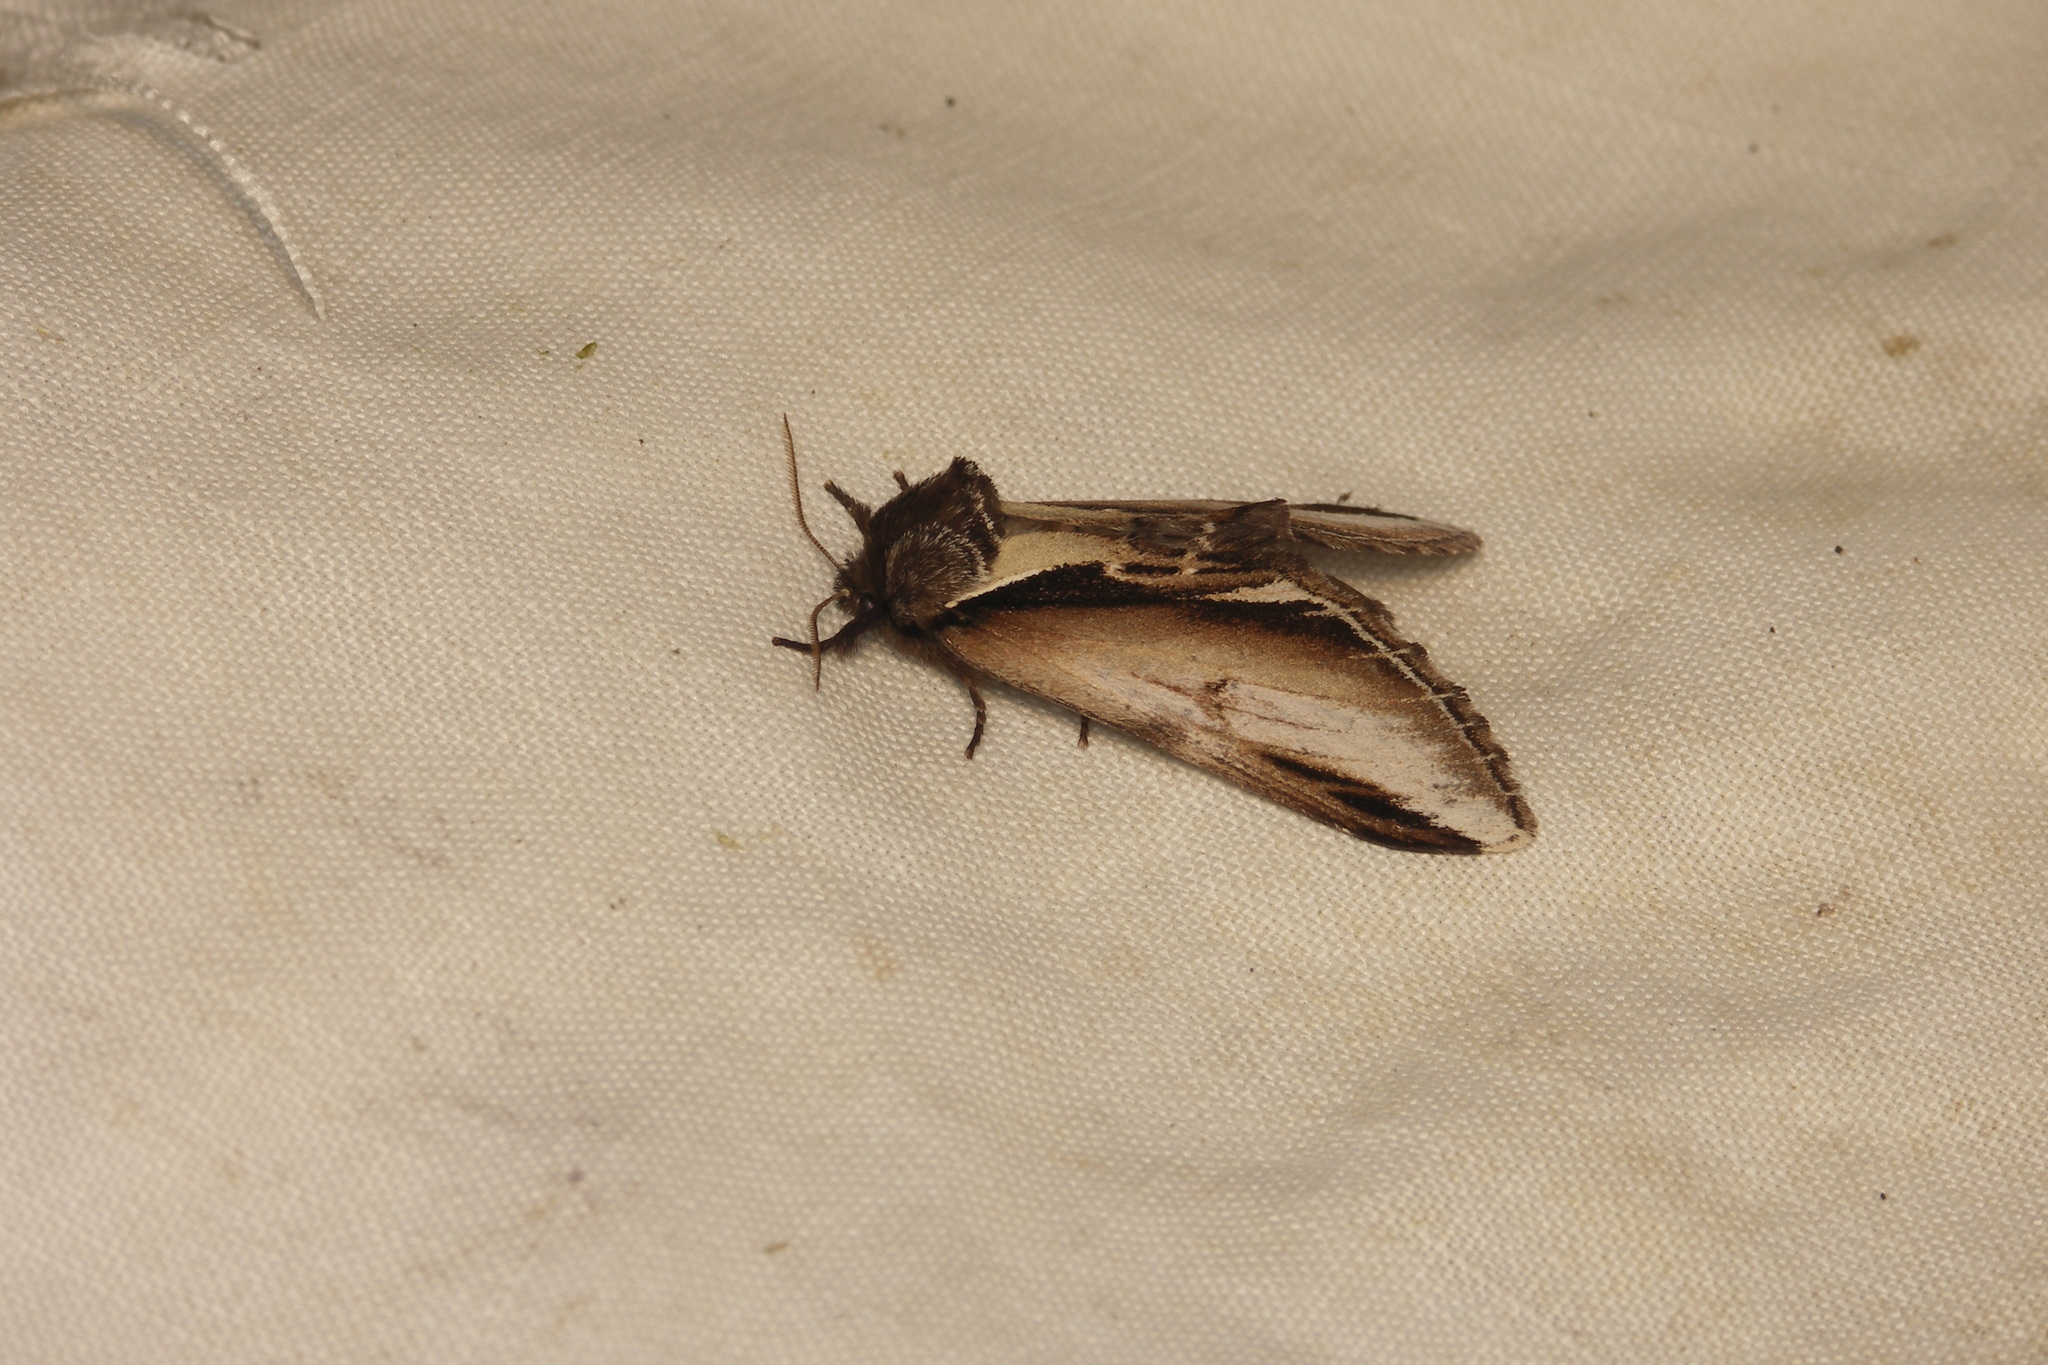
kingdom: Animalia
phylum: Arthropoda
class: Insecta
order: Lepidoptera
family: Notodontidae
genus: Pheosia
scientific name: Pheosia gnoma
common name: Lesser swallow prominent
